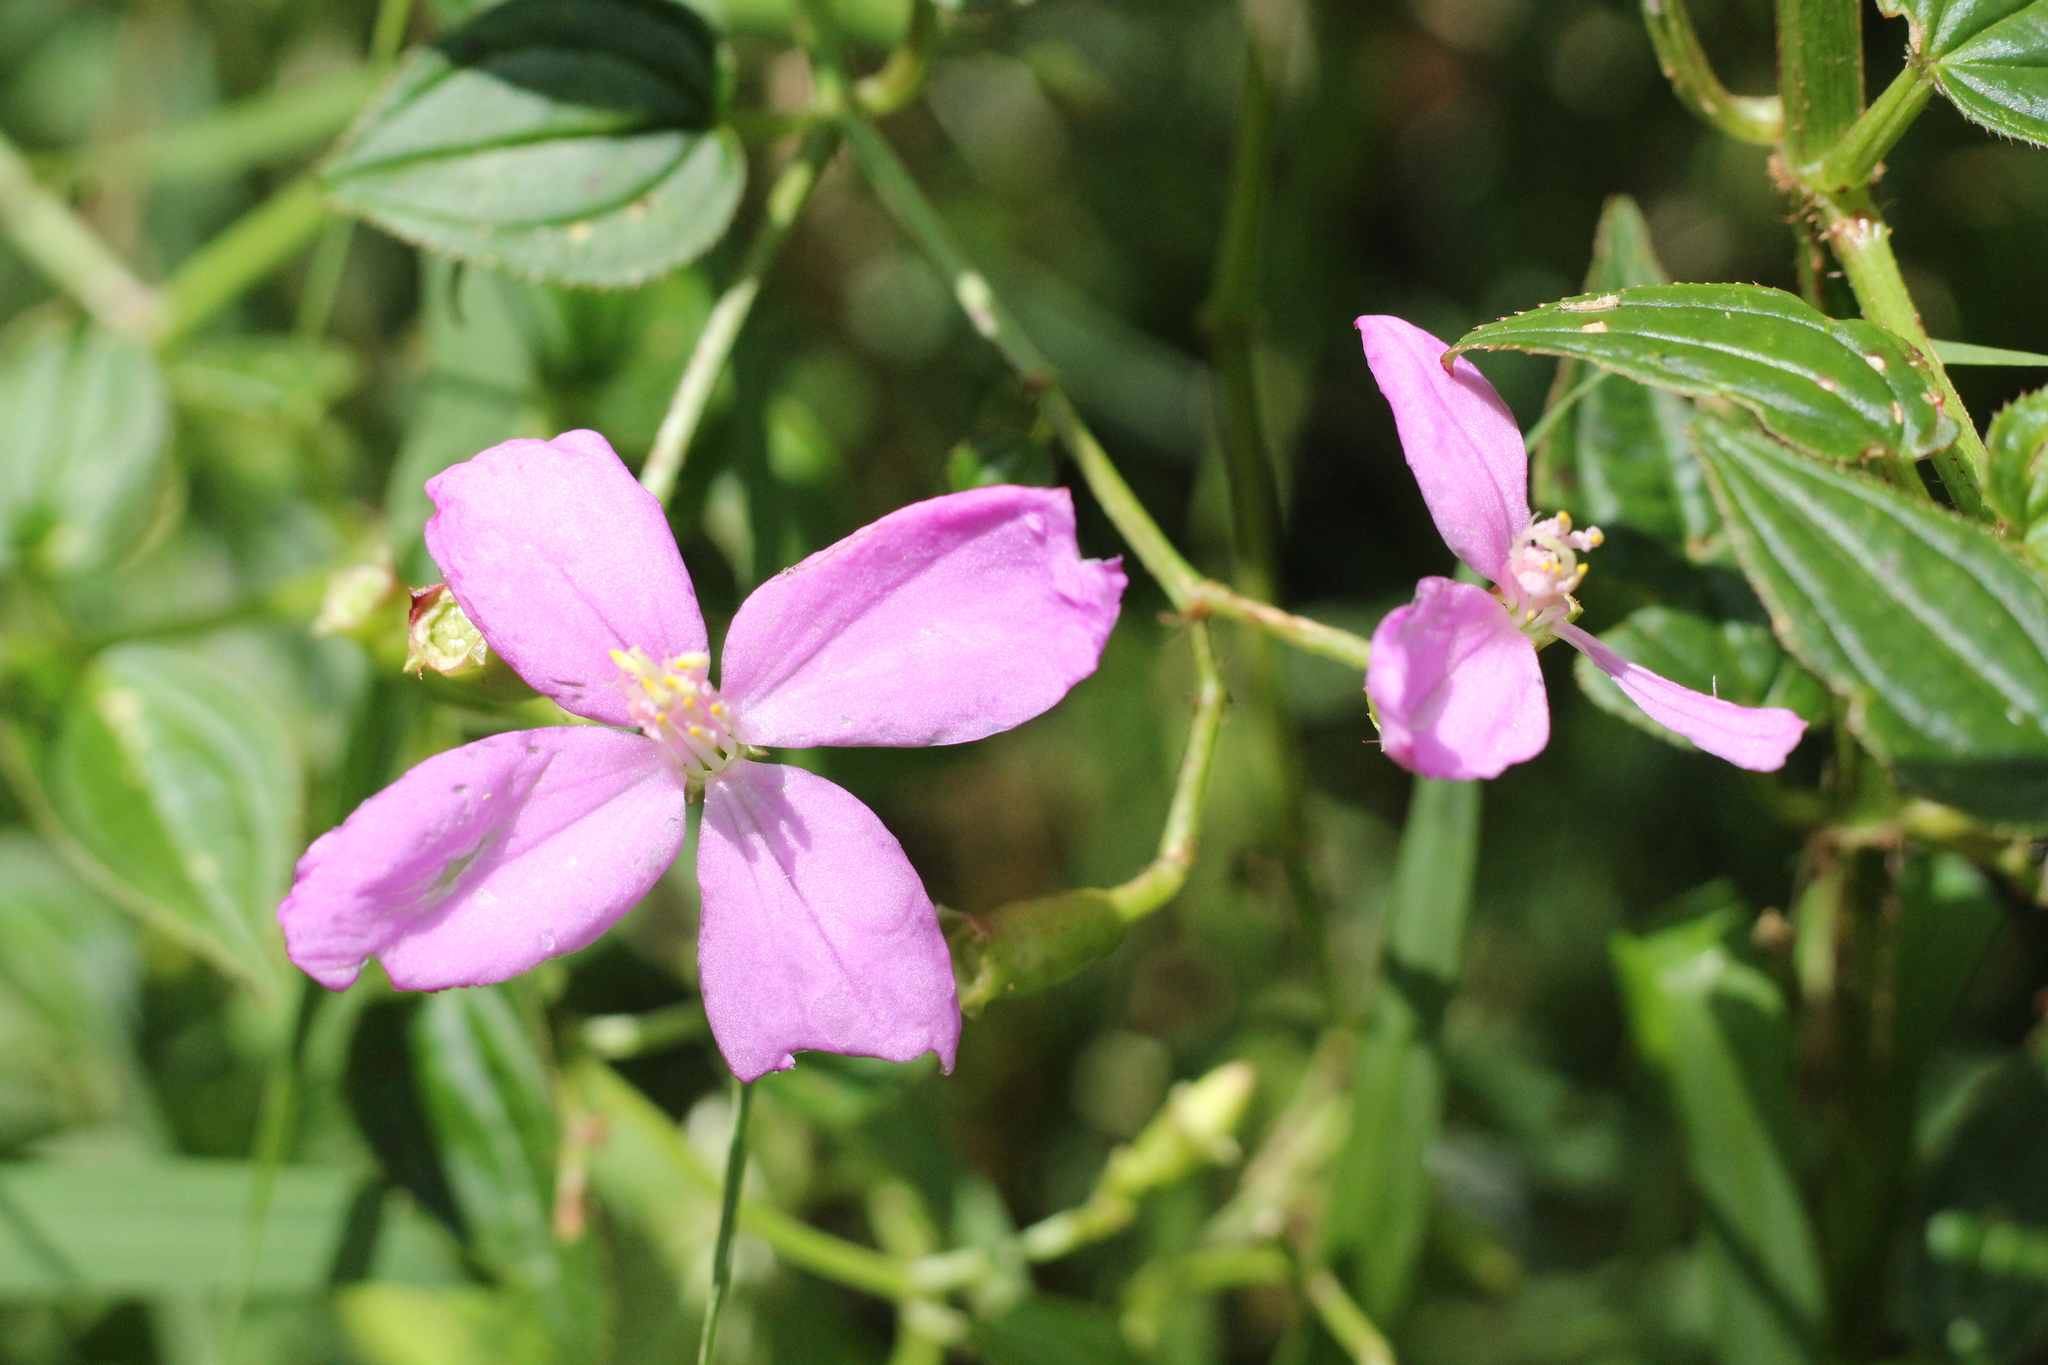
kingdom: Plantae
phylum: Tracheophyta
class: Magnoliopsida
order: Myrtales
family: Melastomataceae
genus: Arthrostemma
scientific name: Arthrostemma ciliatum
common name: Everblooming eavender
